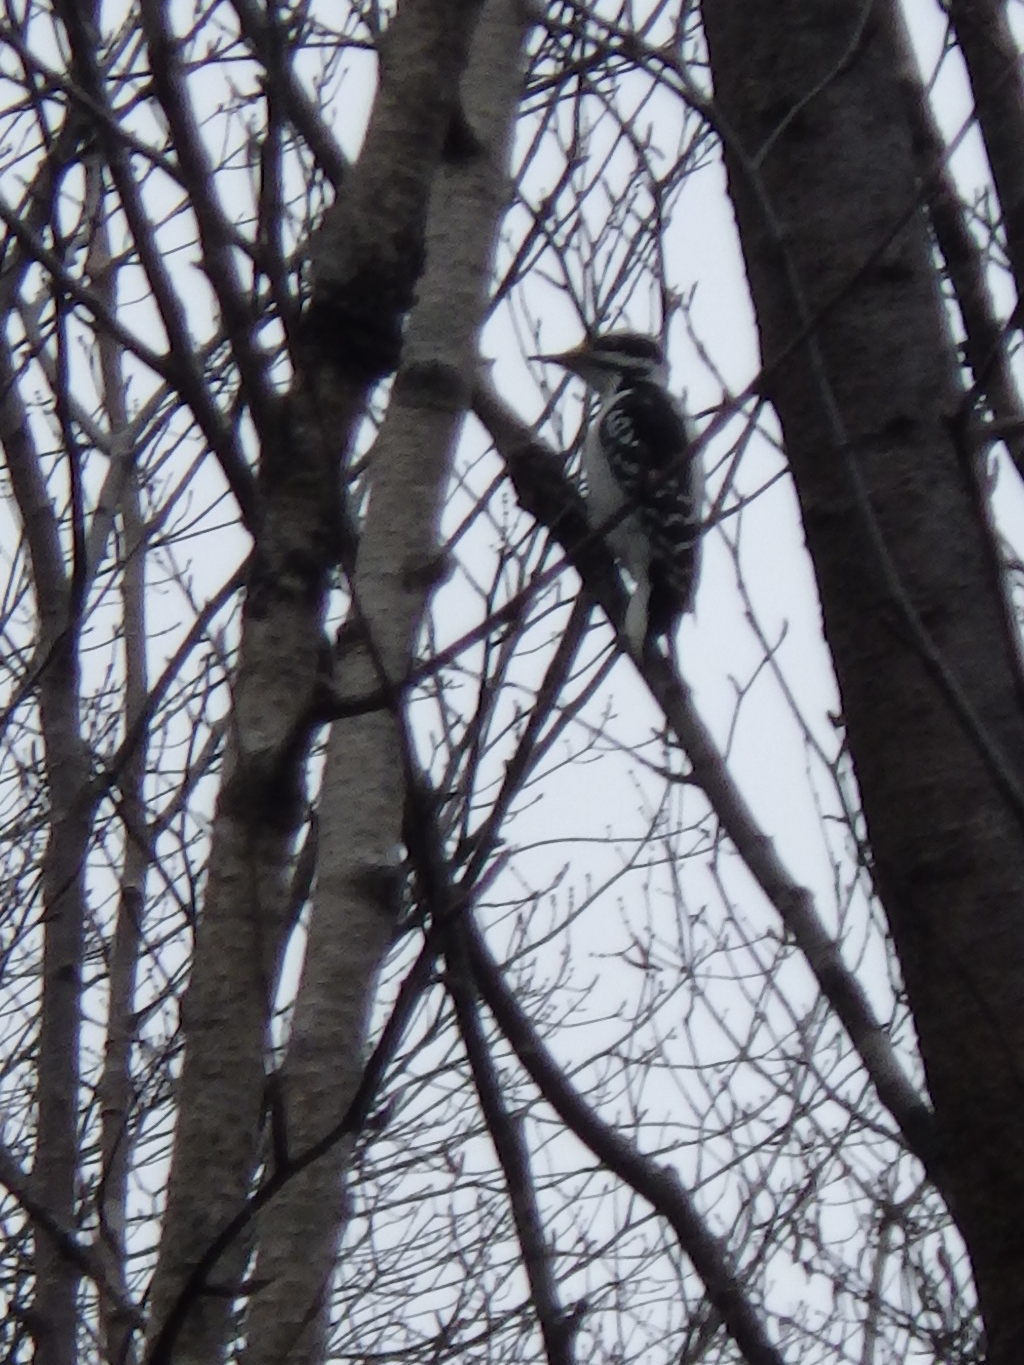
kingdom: Animalia
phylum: Chordata
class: Aves
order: Piciformes
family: Picidae
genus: Leuconotopicus
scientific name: Leuconotopicus villosus
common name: Hairy woodpecker
